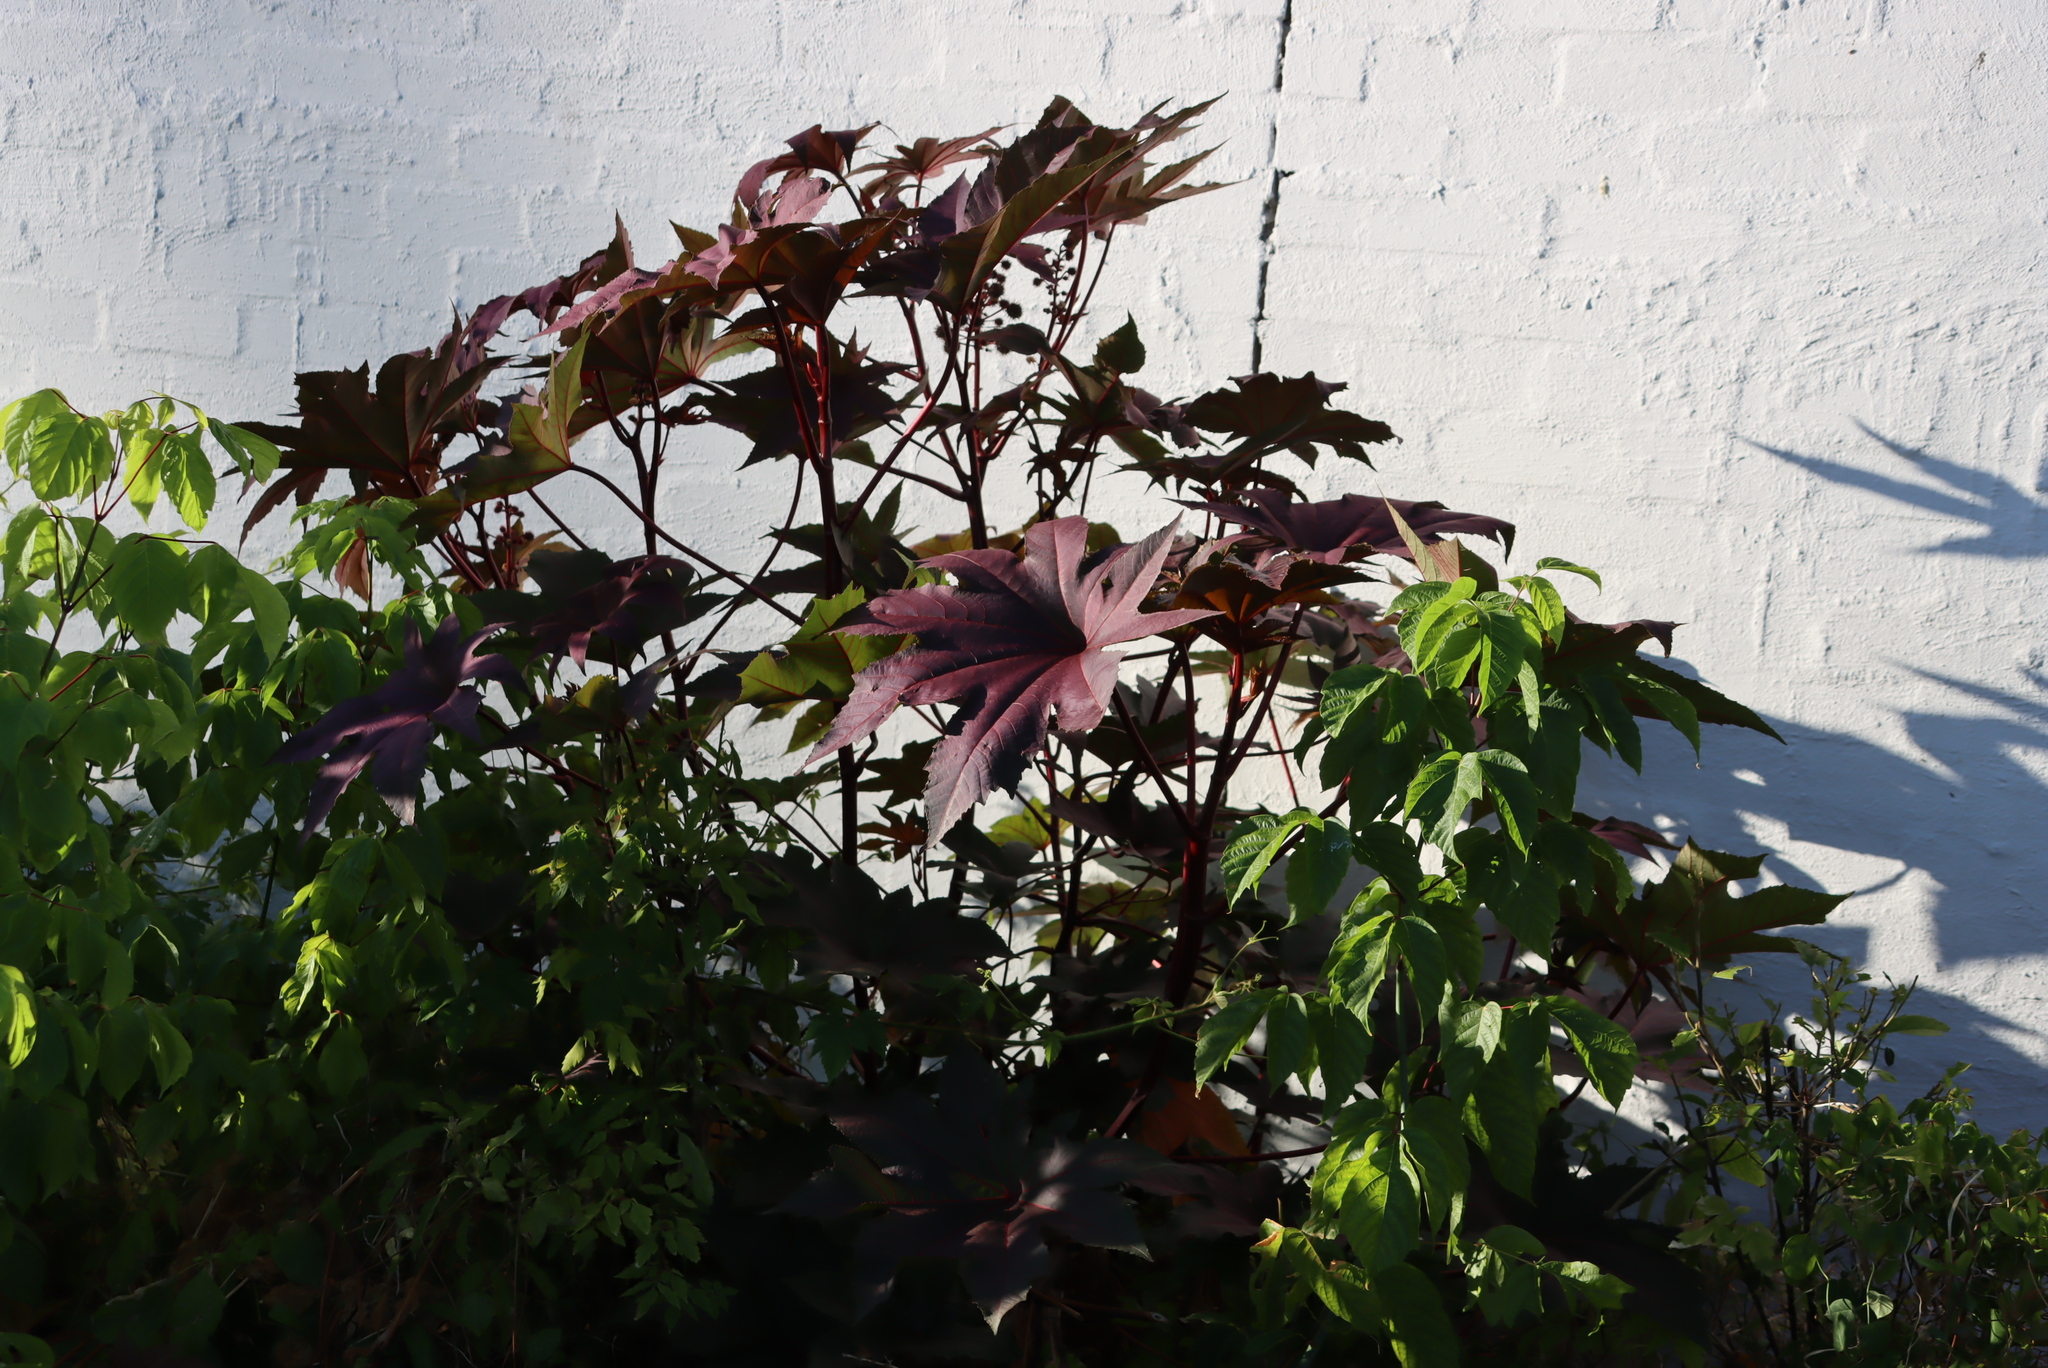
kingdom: Plantae
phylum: Tracheophyta
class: Magnoliopsida
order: Malpighiales
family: Euphorbiaceae
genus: Ricinus
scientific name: Ricinus communis
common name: Castor-oil-plant
